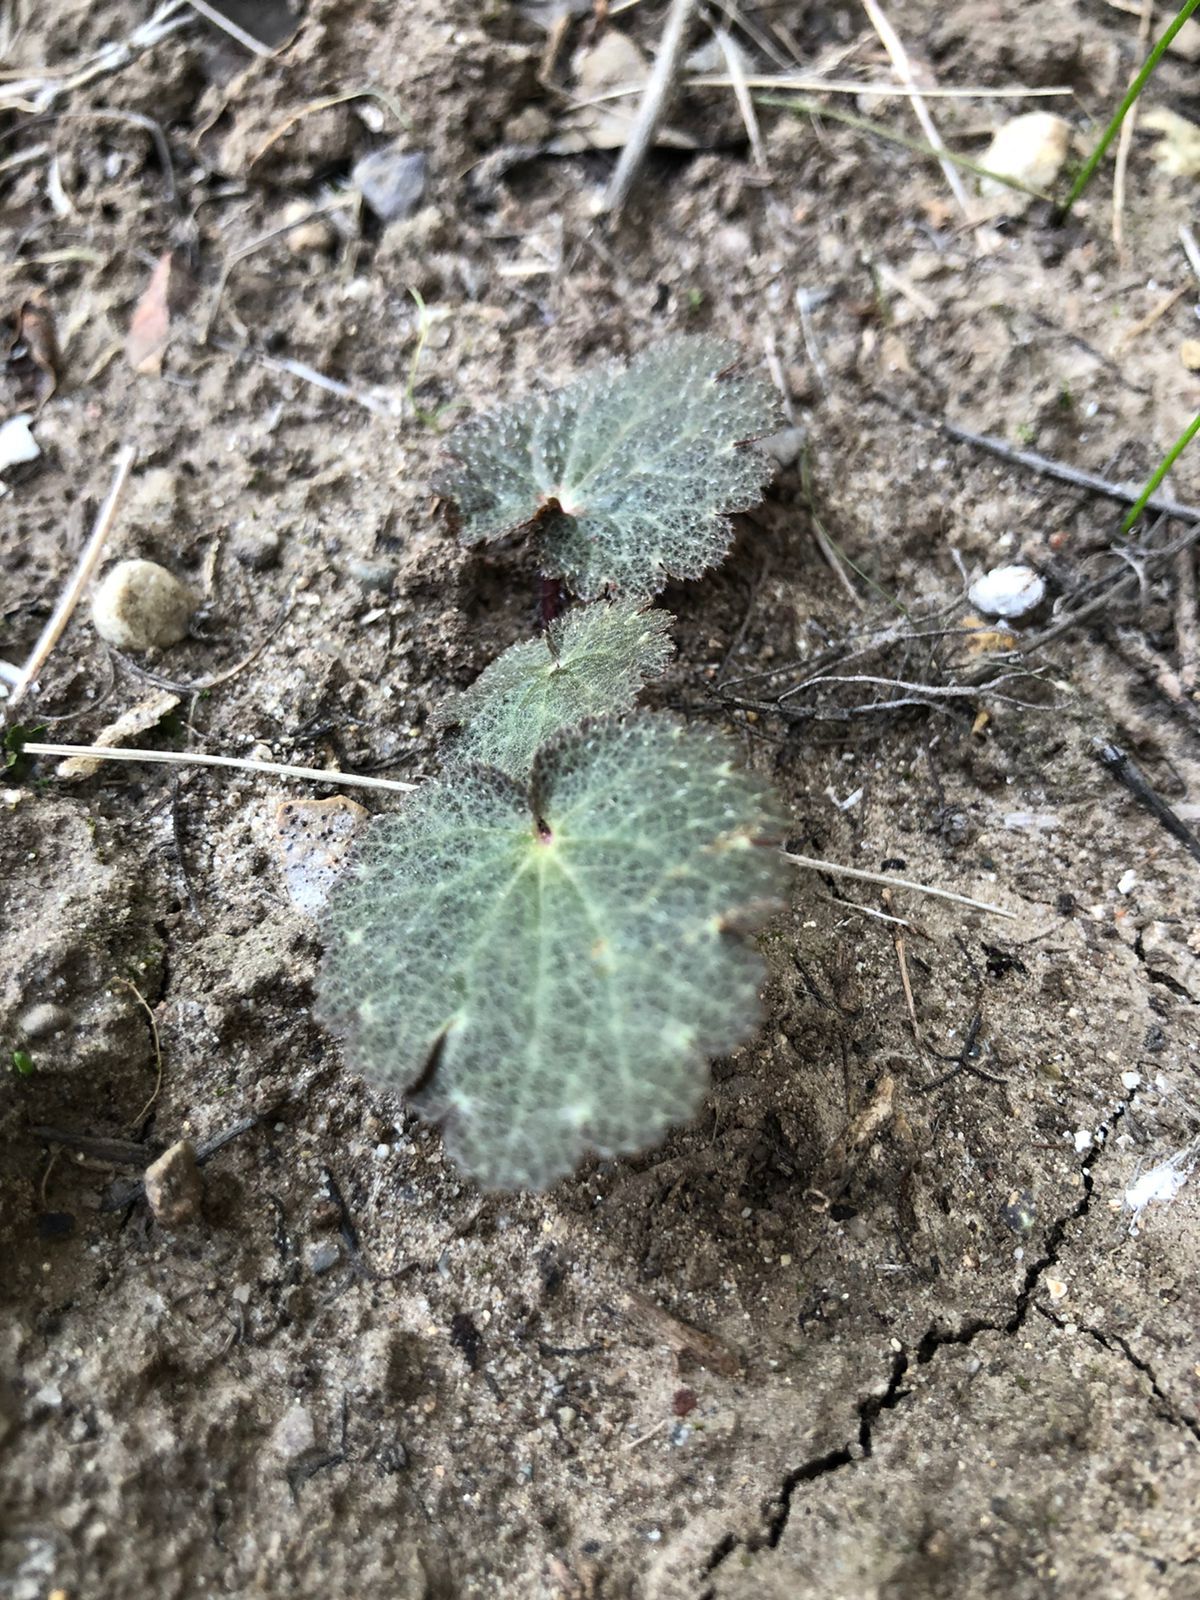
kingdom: Plantae
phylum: Tracheophyta
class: Magnoliopsida
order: Saxifragales
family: Saxifragaceae
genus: Jepsonia
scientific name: Jepsonia parryi
